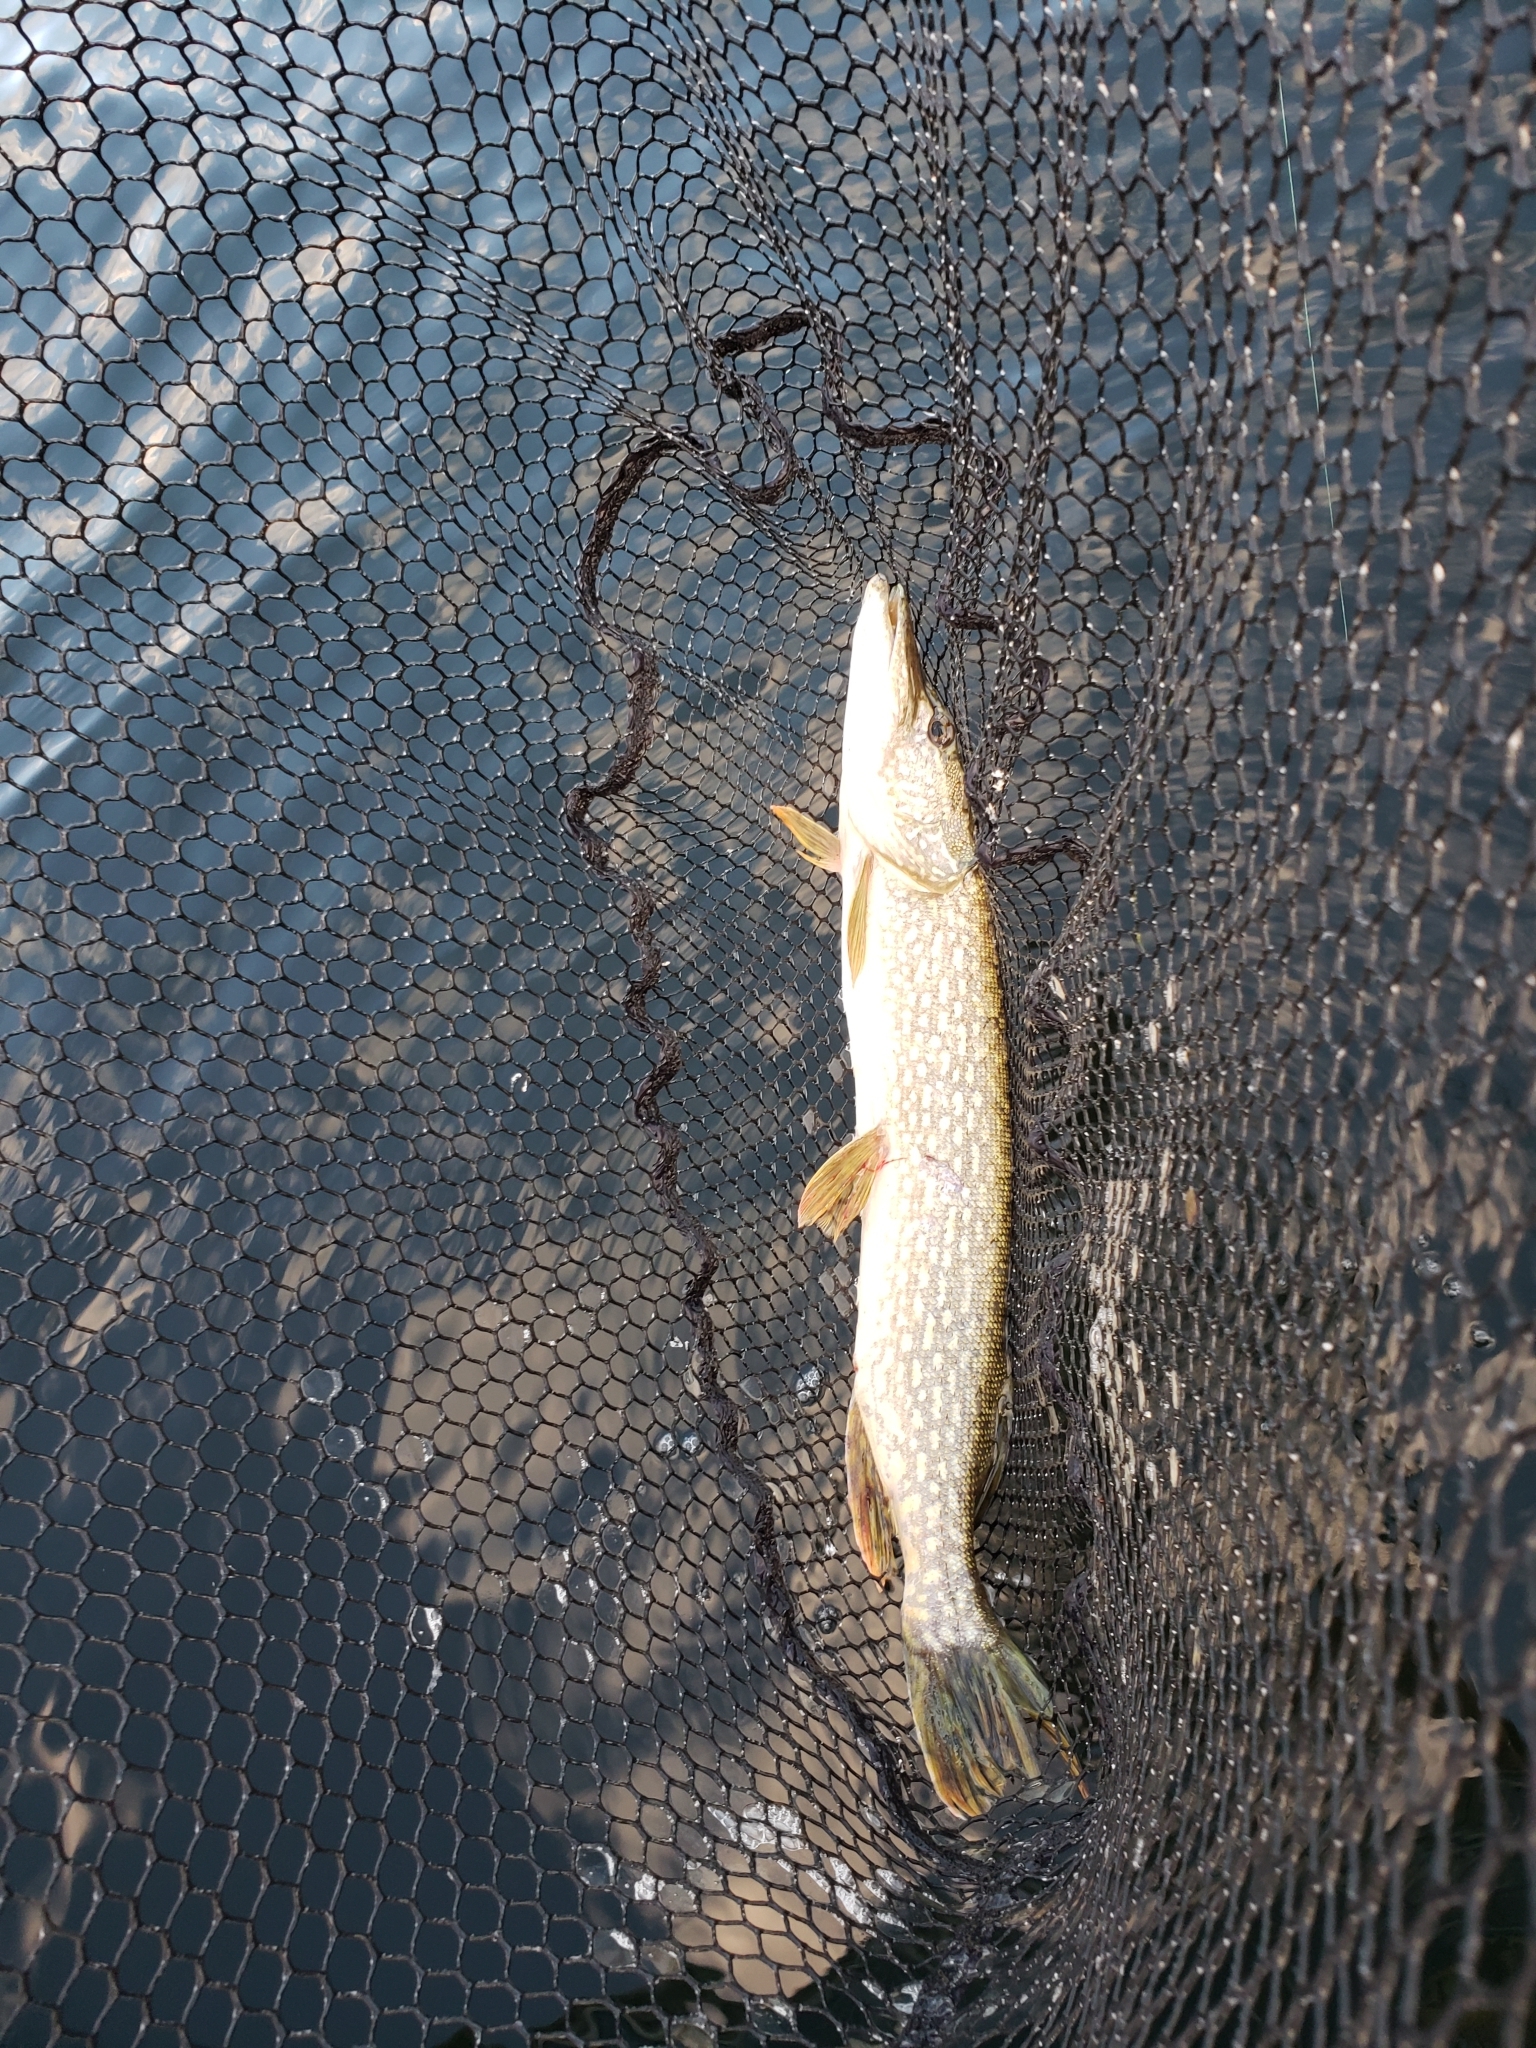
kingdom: Animalia
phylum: Chordata
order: Esociformes
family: Esocidae
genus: Esox
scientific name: Esox lucius
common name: Northern pike
